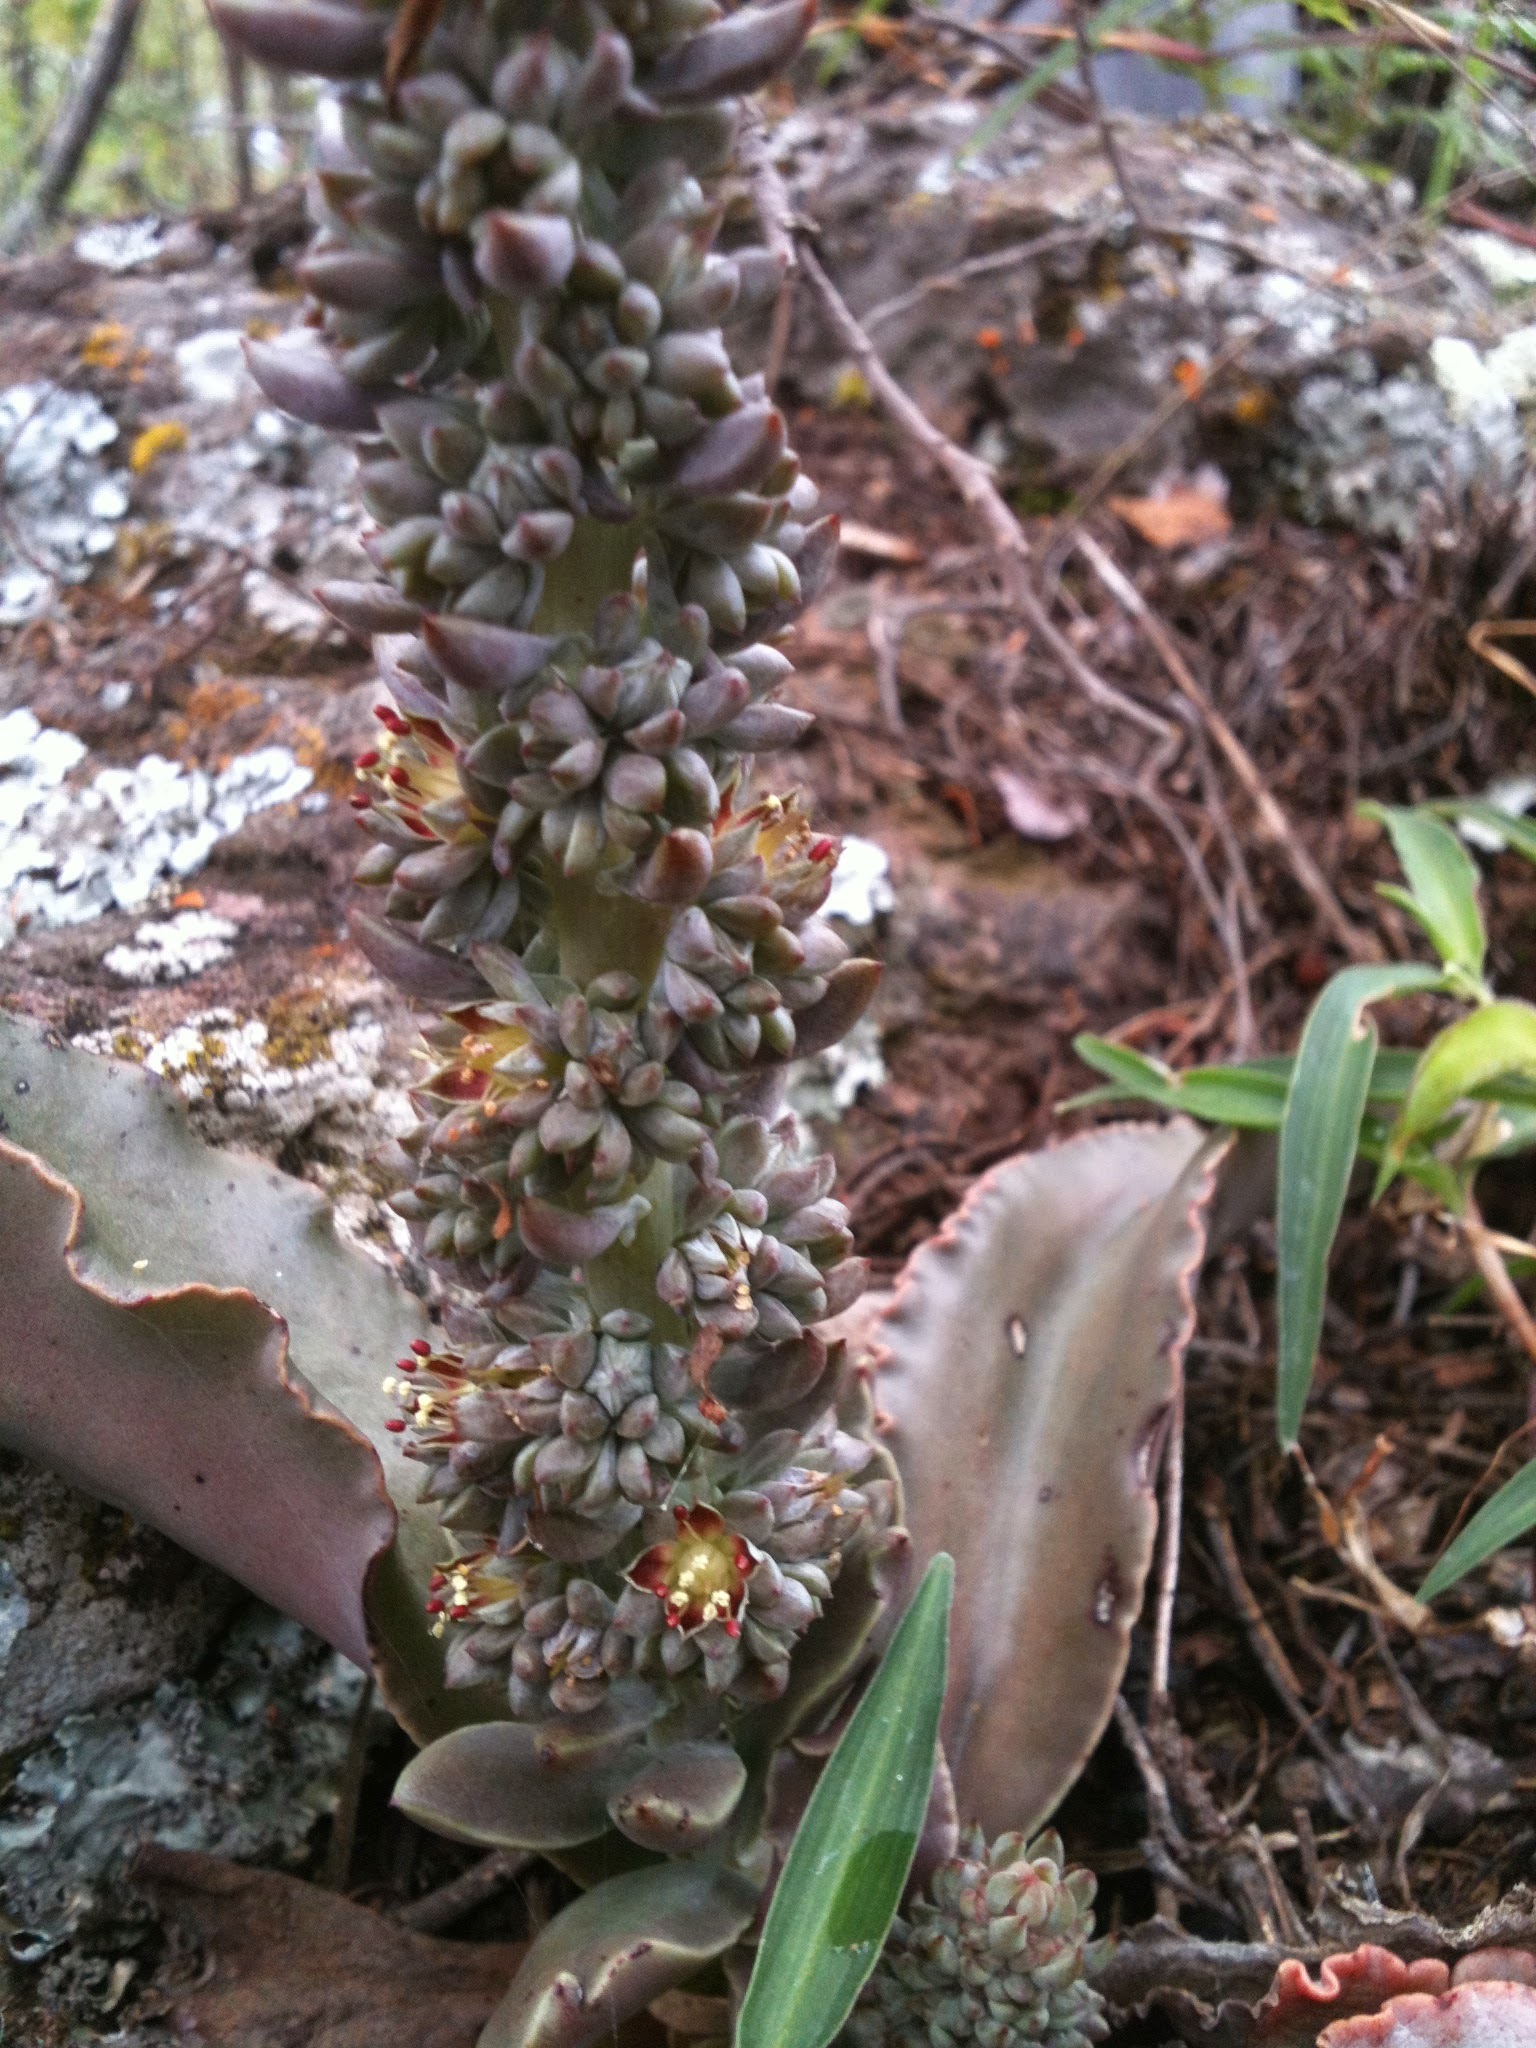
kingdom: Plantae
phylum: Tracheophyta
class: Magnoliopsida
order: Saxifragales
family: Crassulaceae
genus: Thompsonella
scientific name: Thompsonella minutiflora
